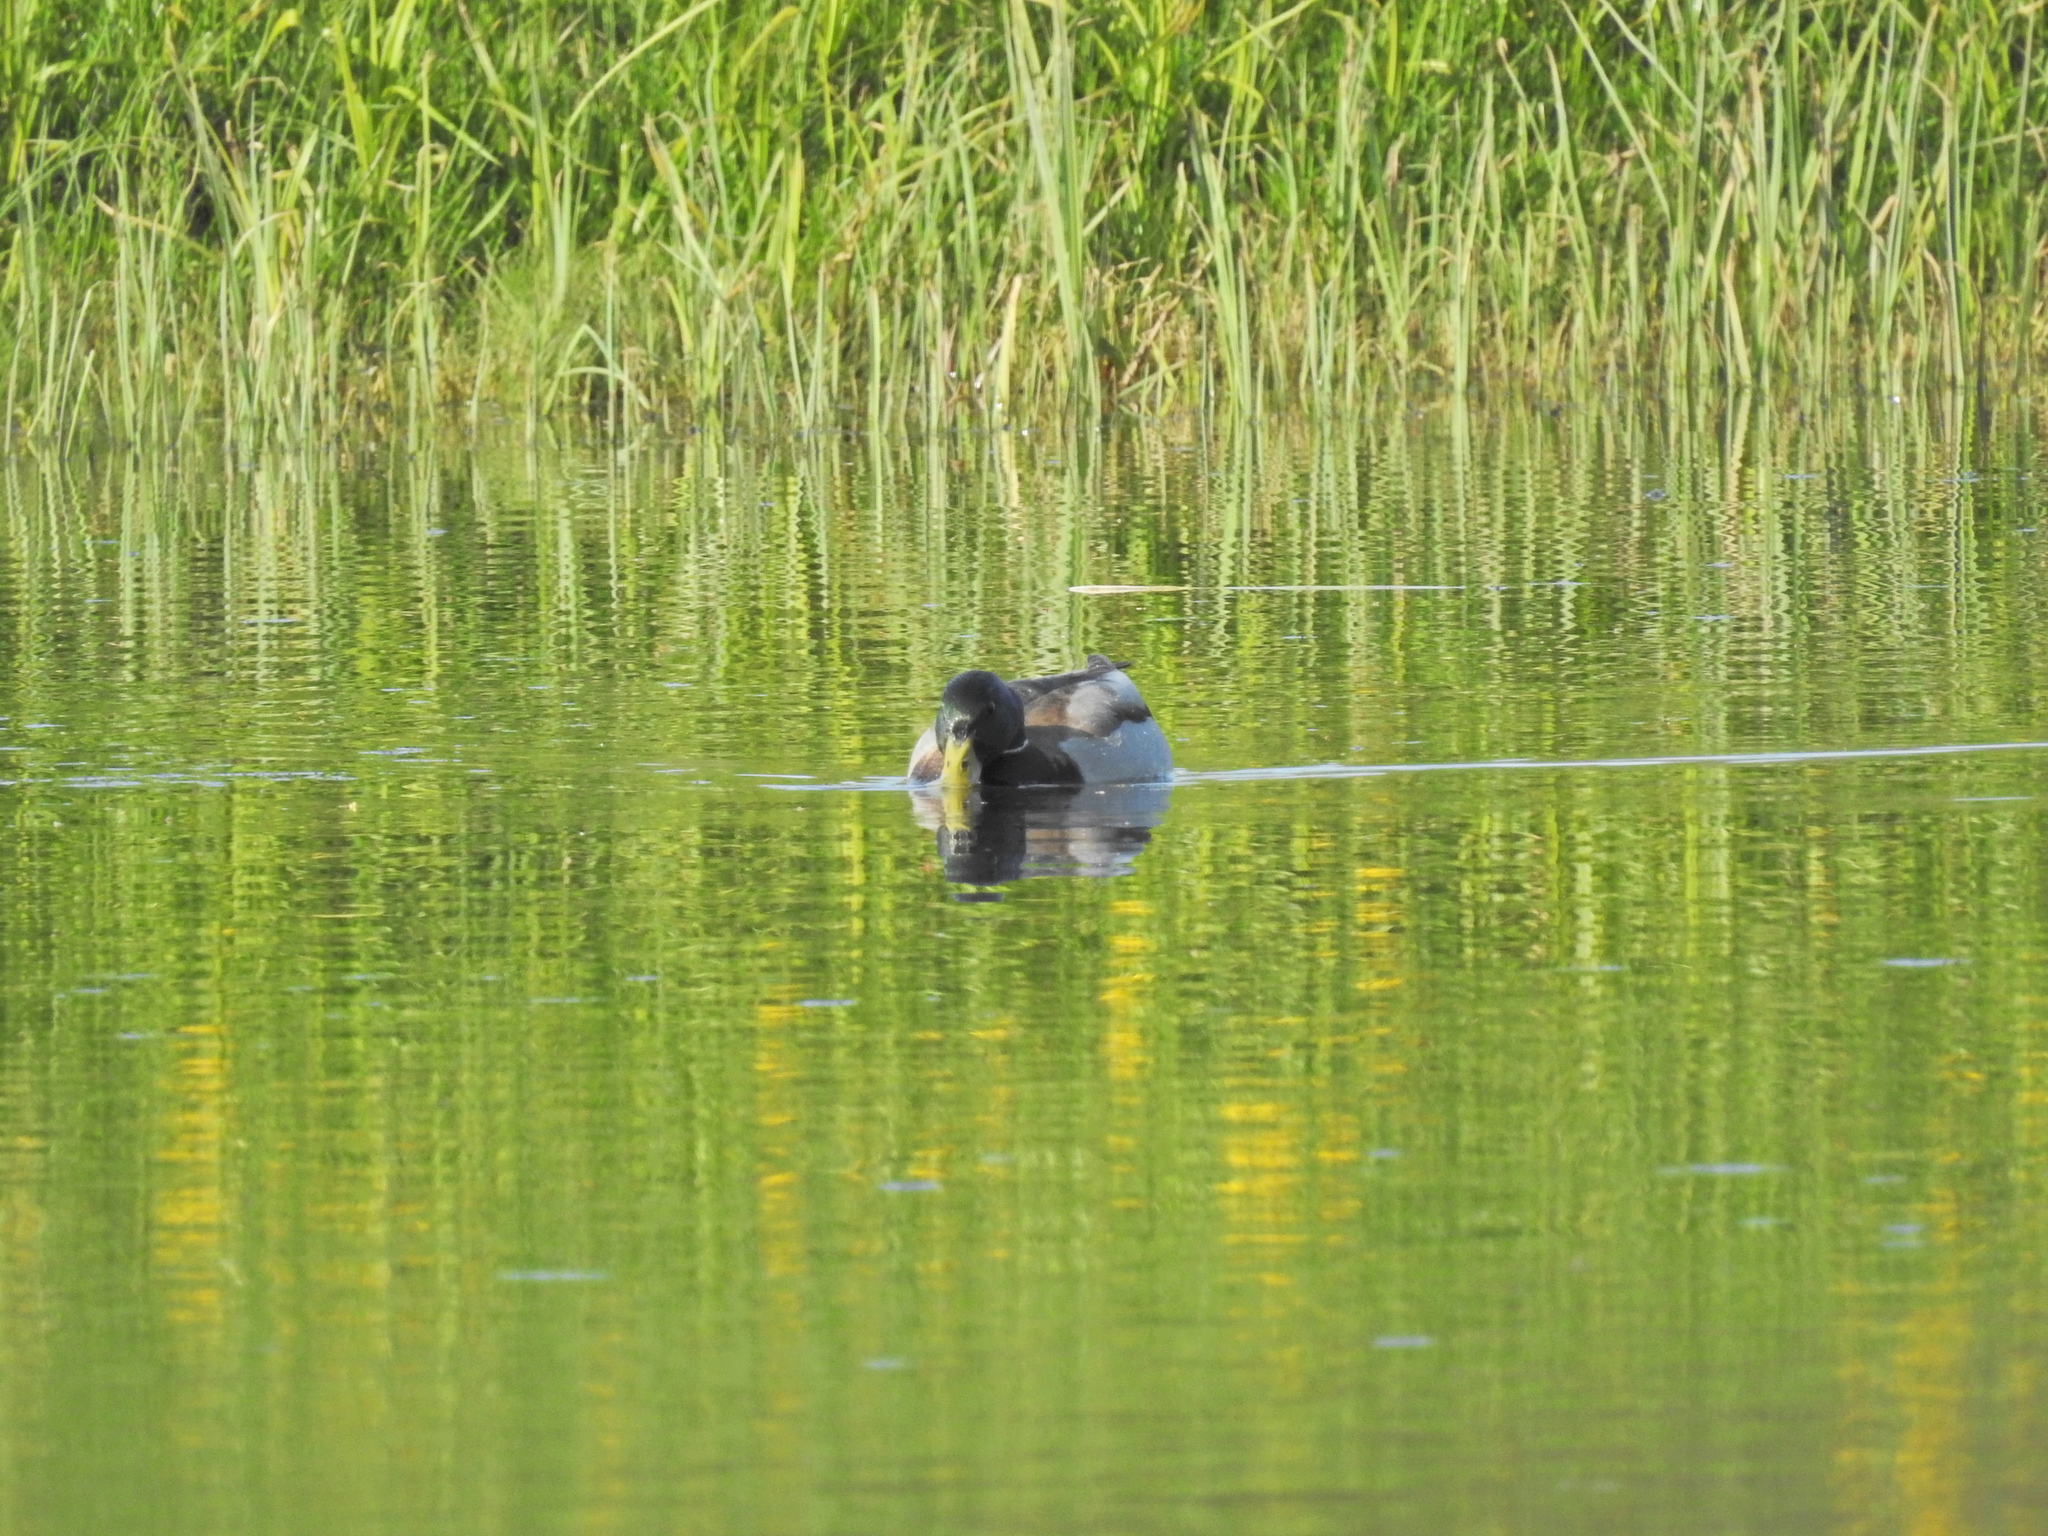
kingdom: Animalia
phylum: Chordata
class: Aves
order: Anseriformes
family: Anatidae
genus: Anas
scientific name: Anas platyrhynchos
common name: Mallard
